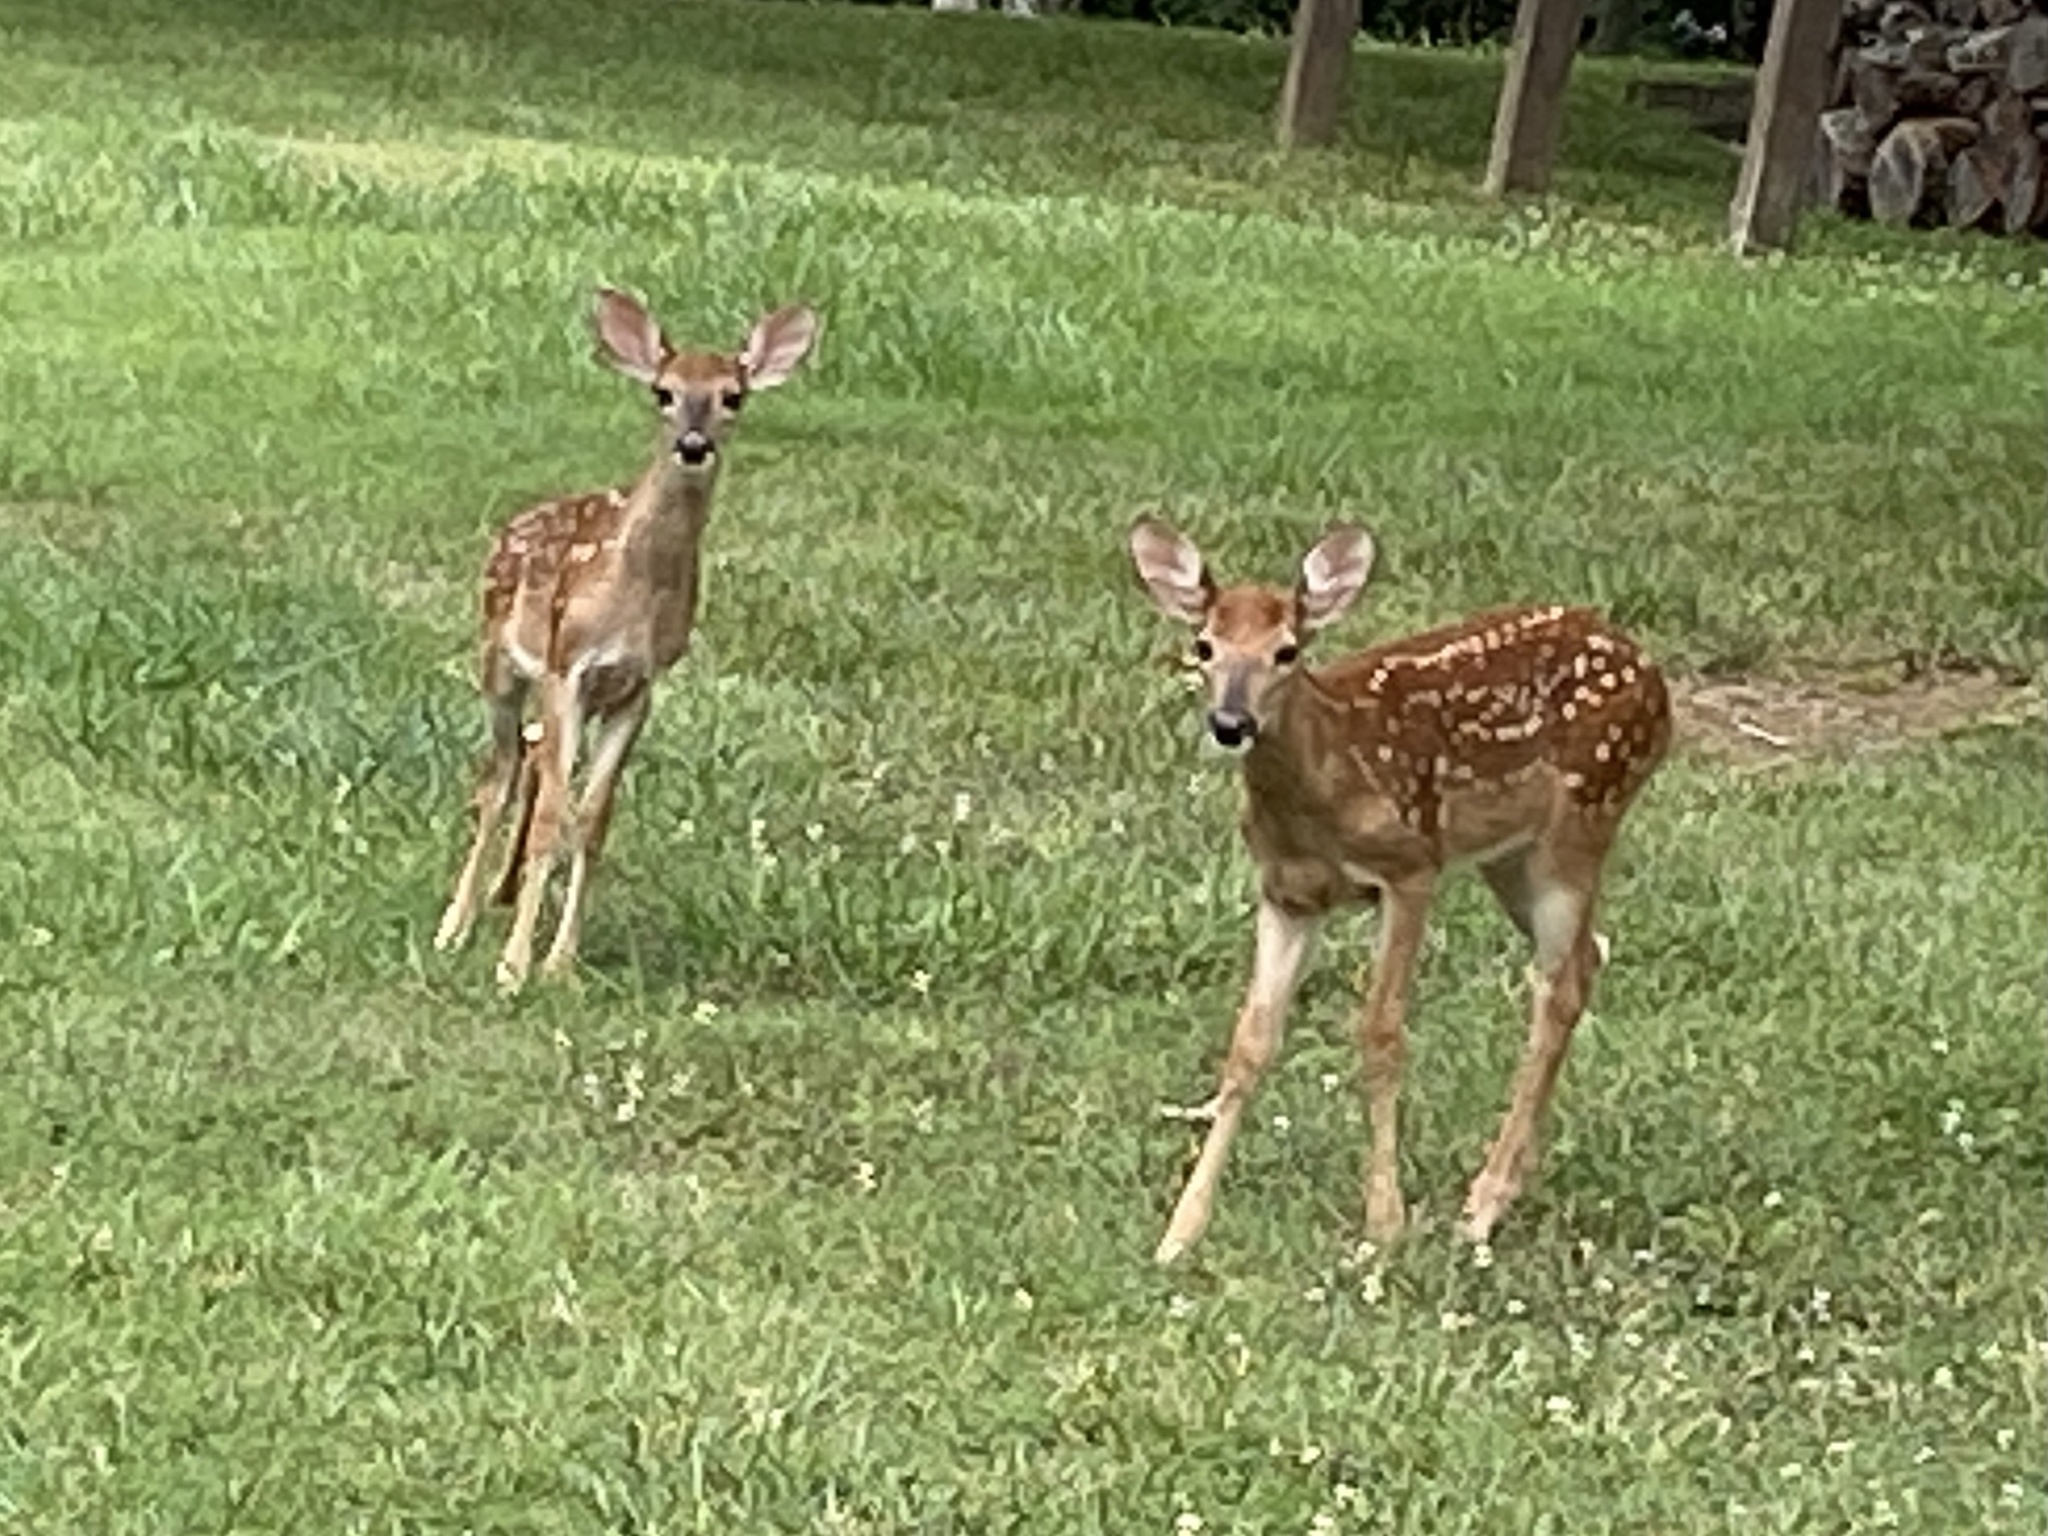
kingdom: Animalia
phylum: Chordata
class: Mammalia
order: Artiodactyla
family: Cervidae
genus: Odocoileus
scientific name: Odocoileus virginianus
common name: White-tailed deer
